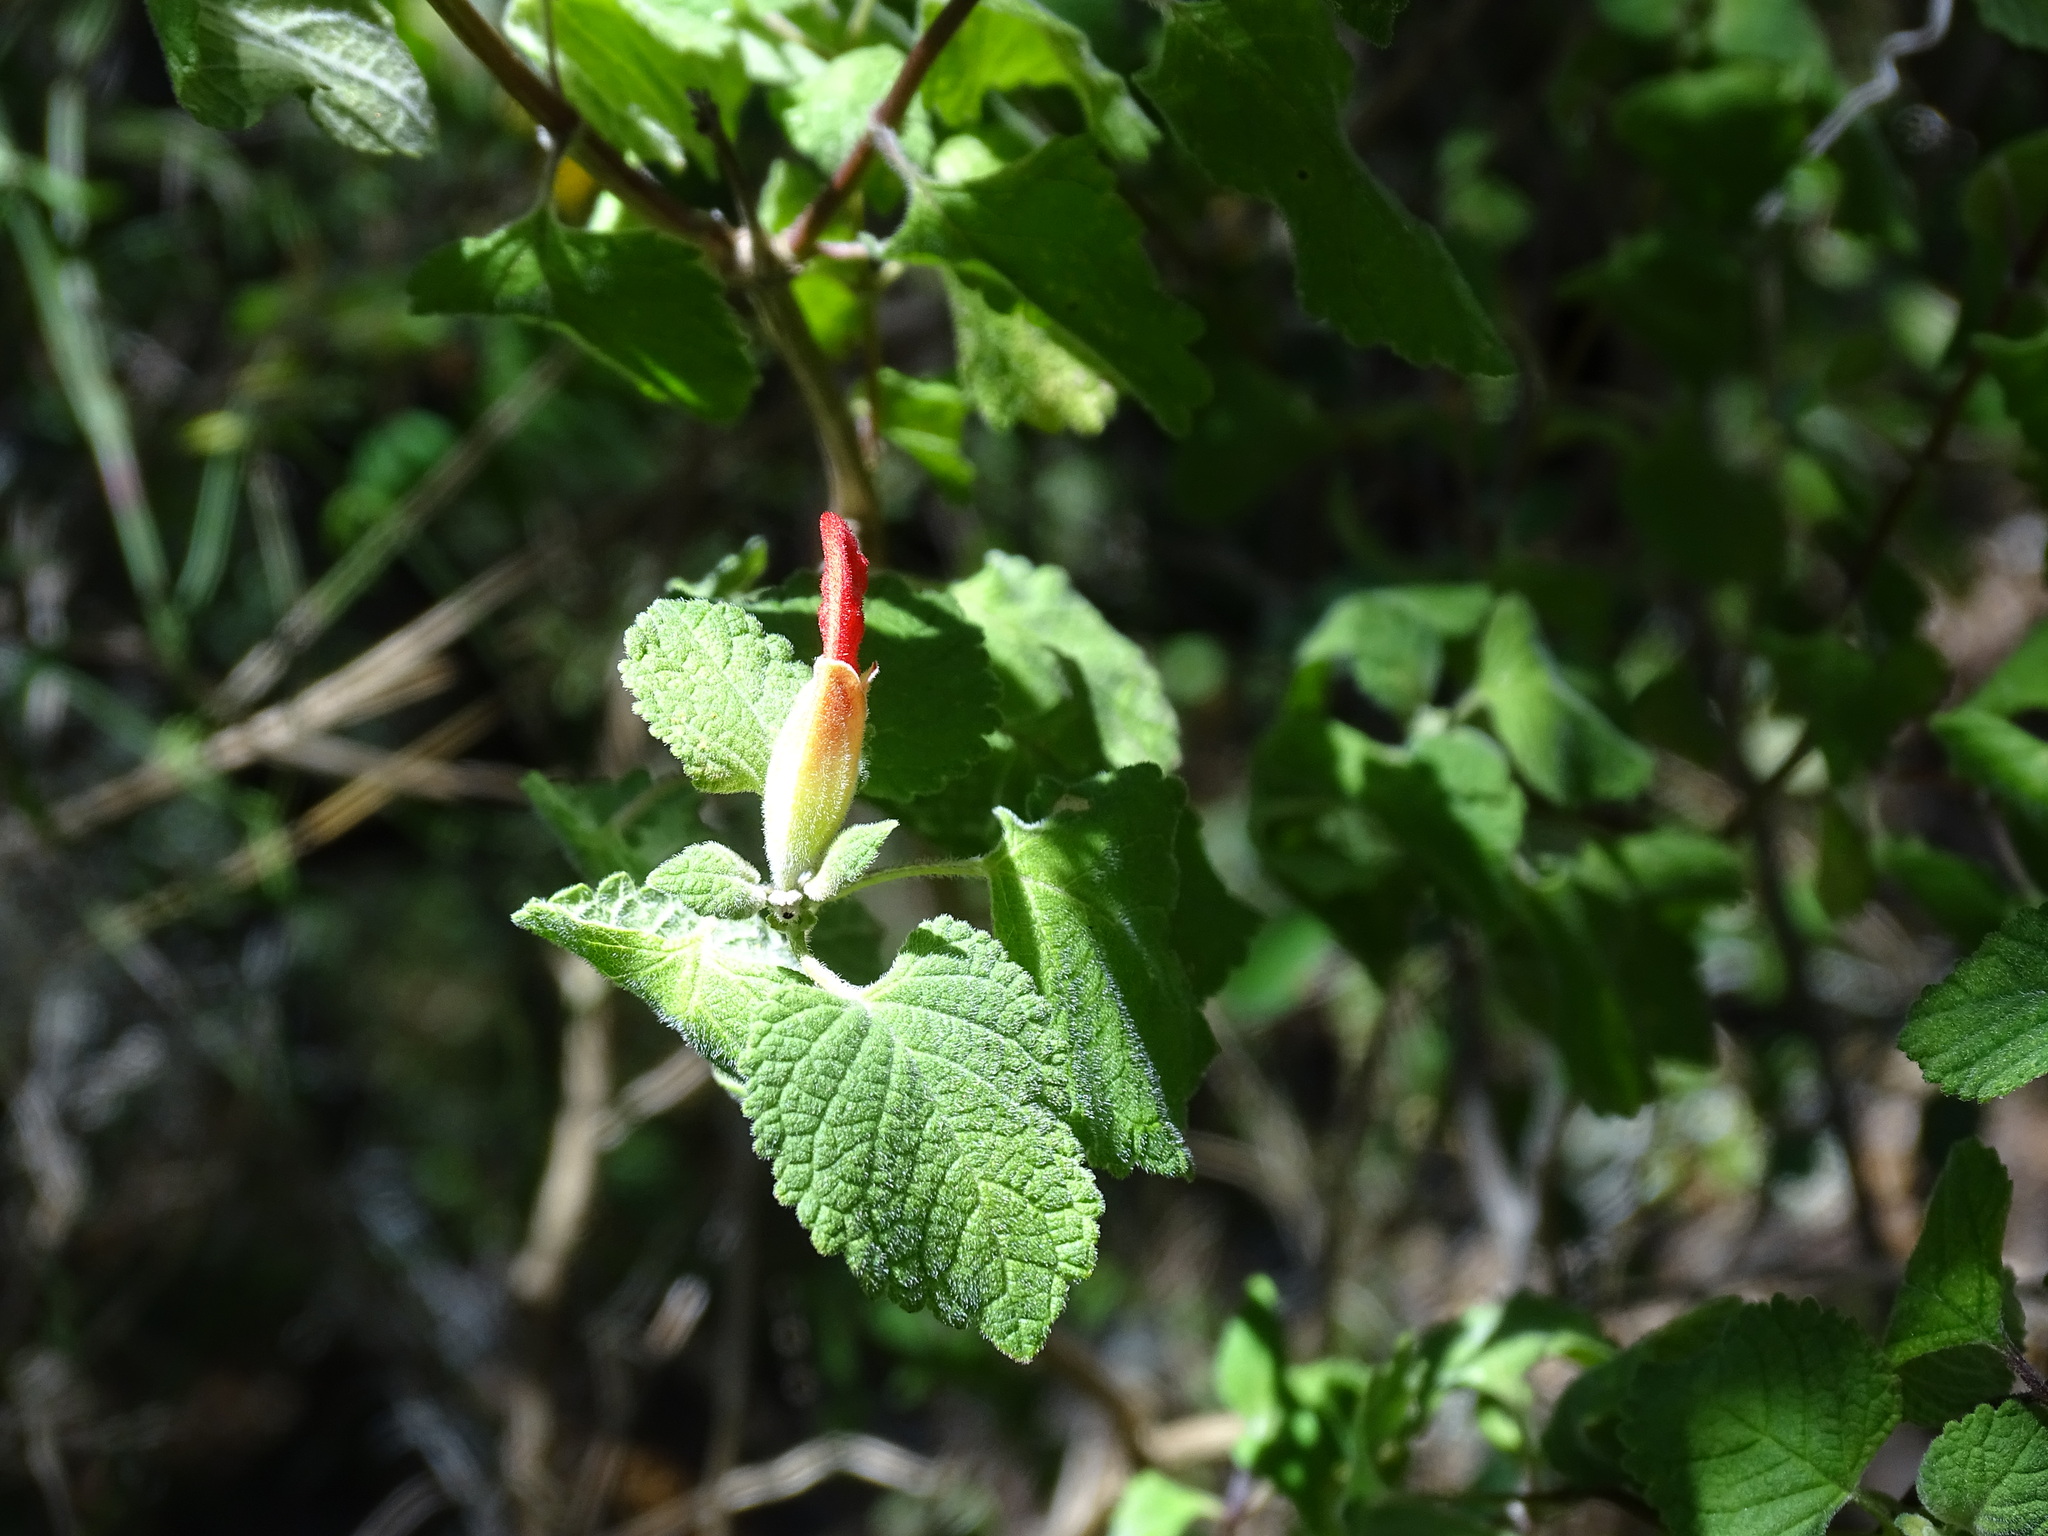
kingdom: Plantae
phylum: Tracheophyta
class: Magnoliopsida
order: Lamiales
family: Lamiaceae
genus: Salvia
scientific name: Salvia regla
